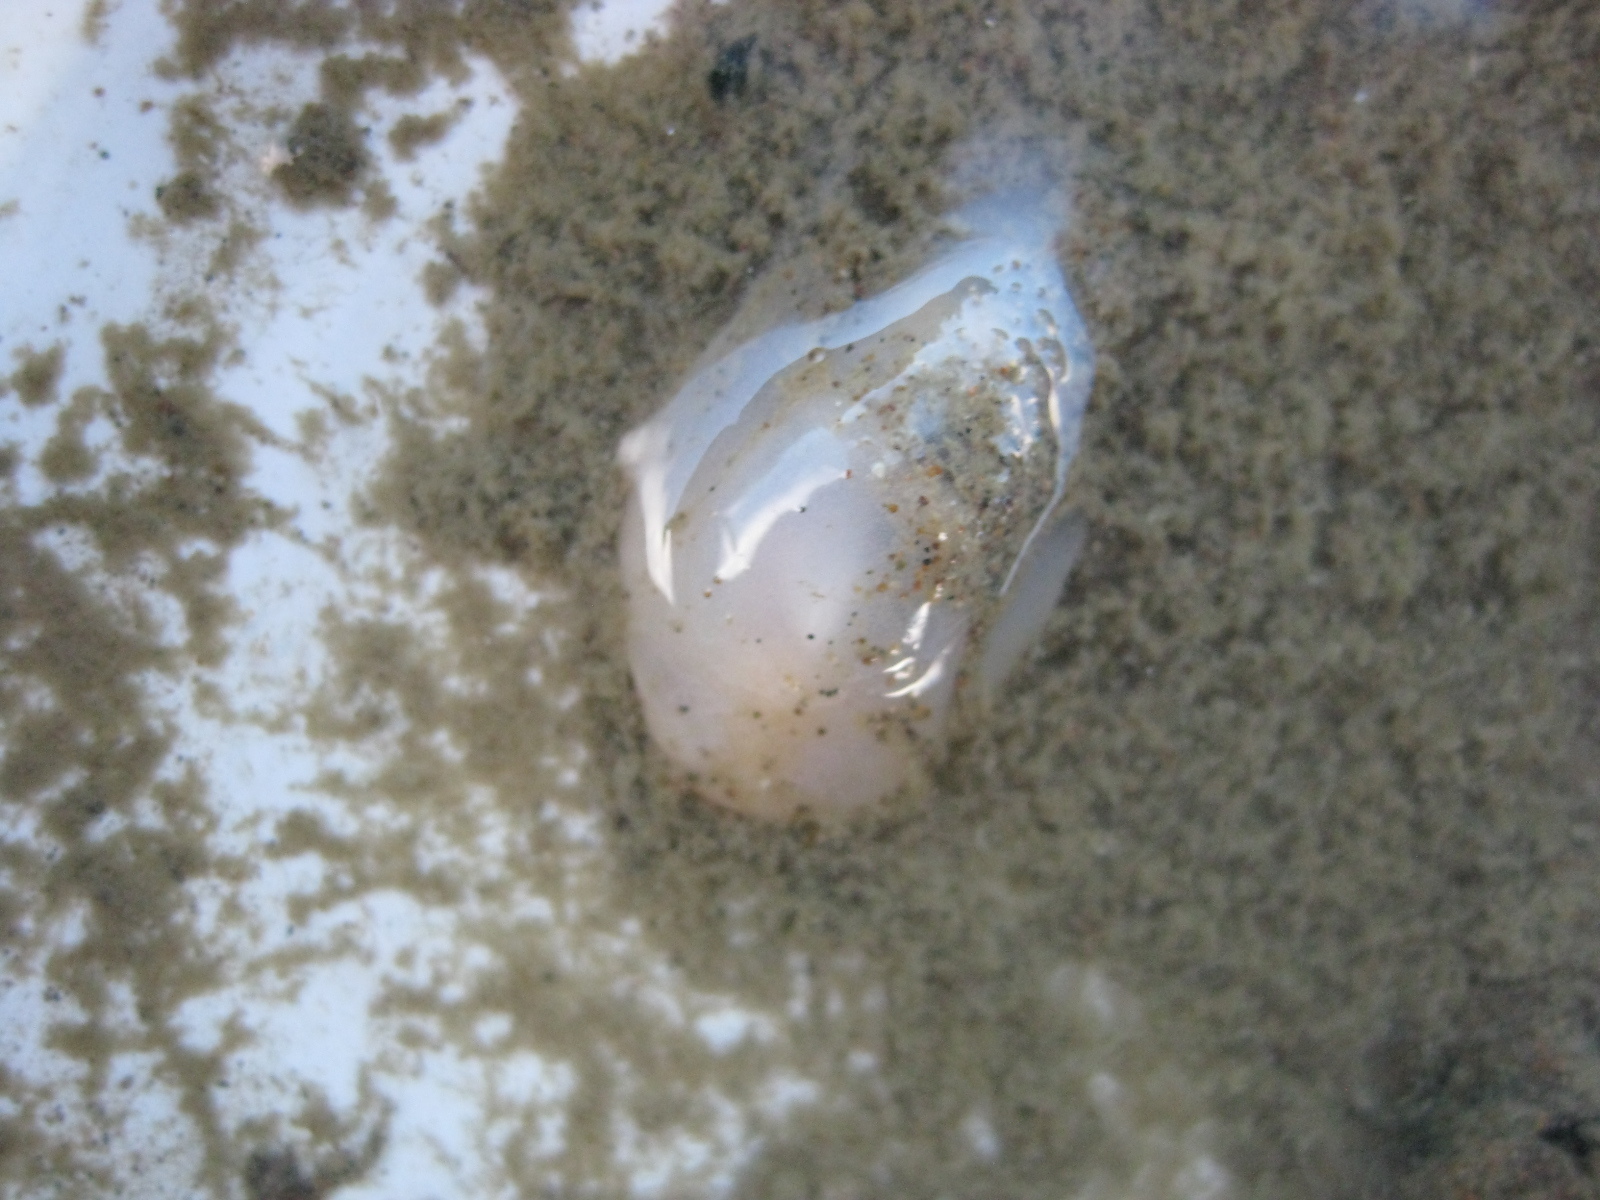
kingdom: Animalia
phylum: Mollusca
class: Gastropoda
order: Cephalaspidea
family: Philinidae
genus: Philine
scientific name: Philine
